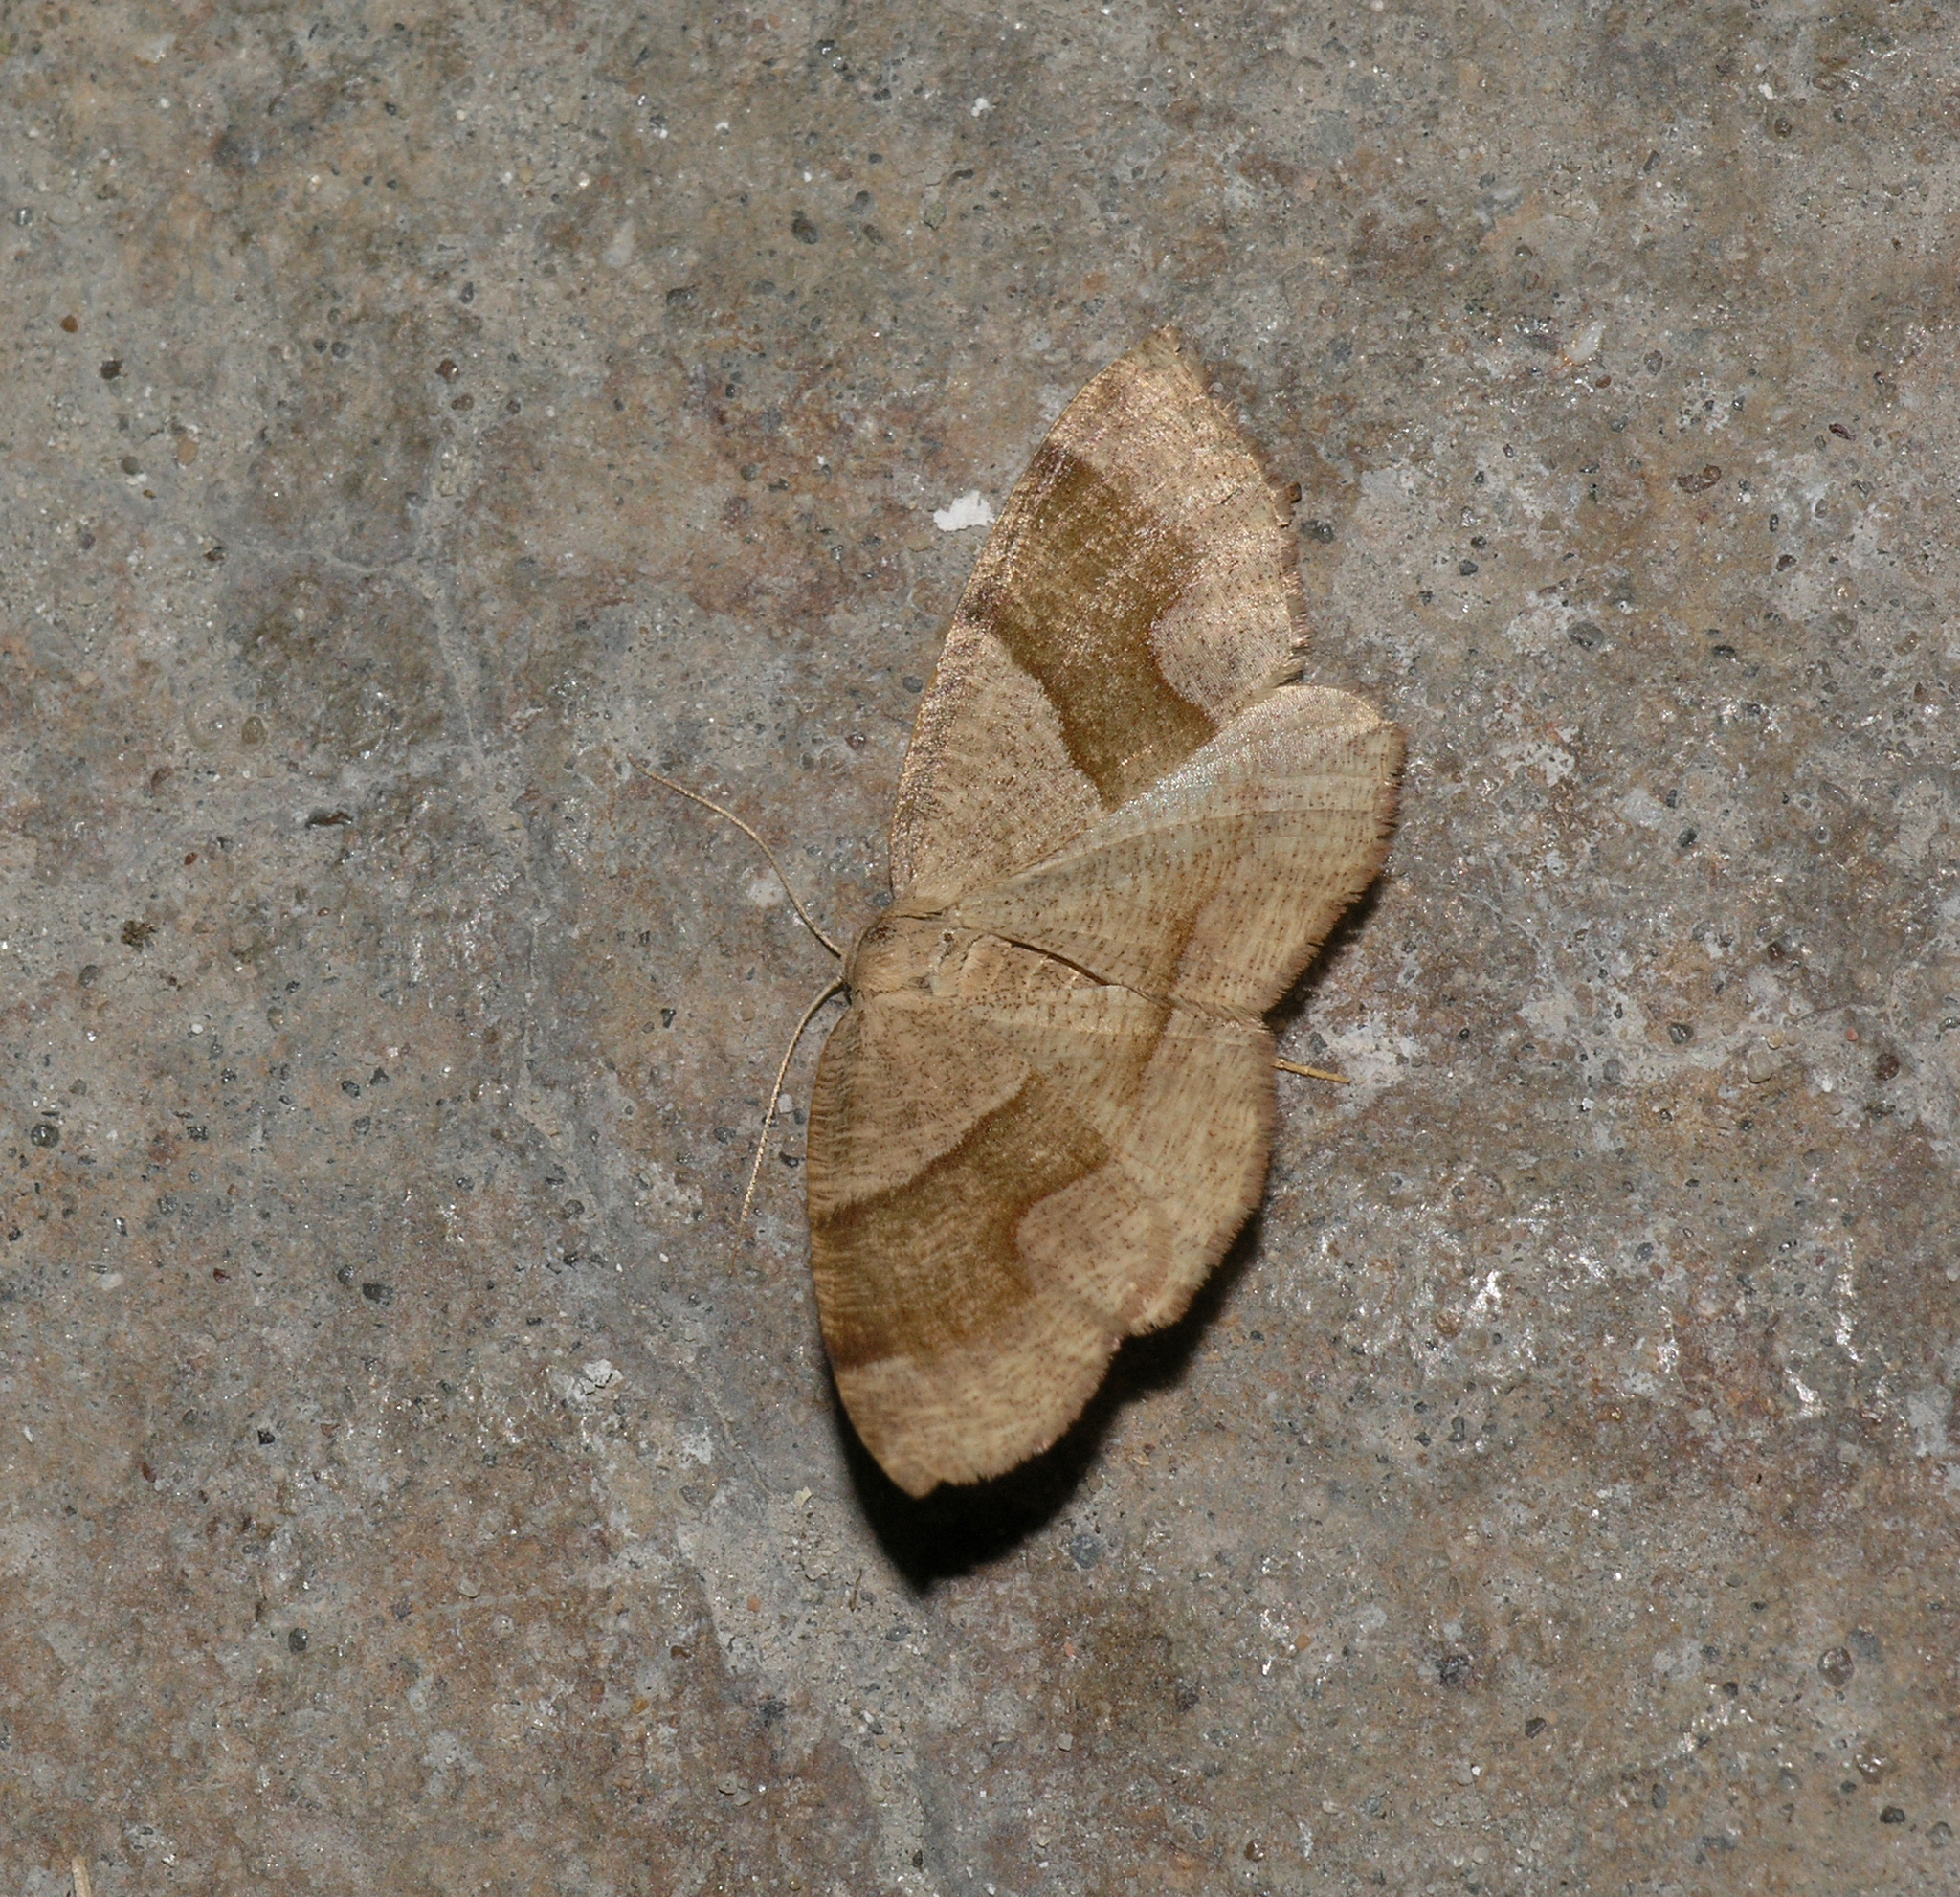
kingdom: Animalia
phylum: Arthropoda
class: Insecta
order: Lepidoptera
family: Geometridae
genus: Plagodis
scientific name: Plagodis pulveraria
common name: Barred umber
